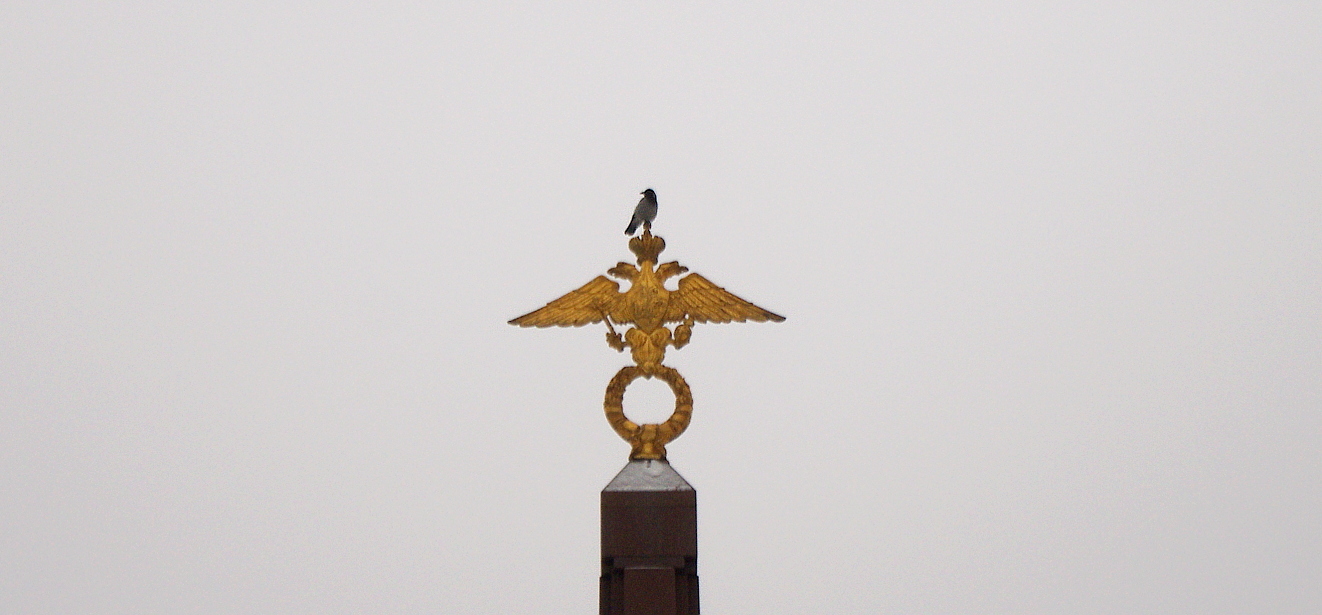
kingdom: Animalia
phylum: Chordata
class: Aves
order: Passeriformes
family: Corvidae
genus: Corvus
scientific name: Corvus cornix
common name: Hooded crow
